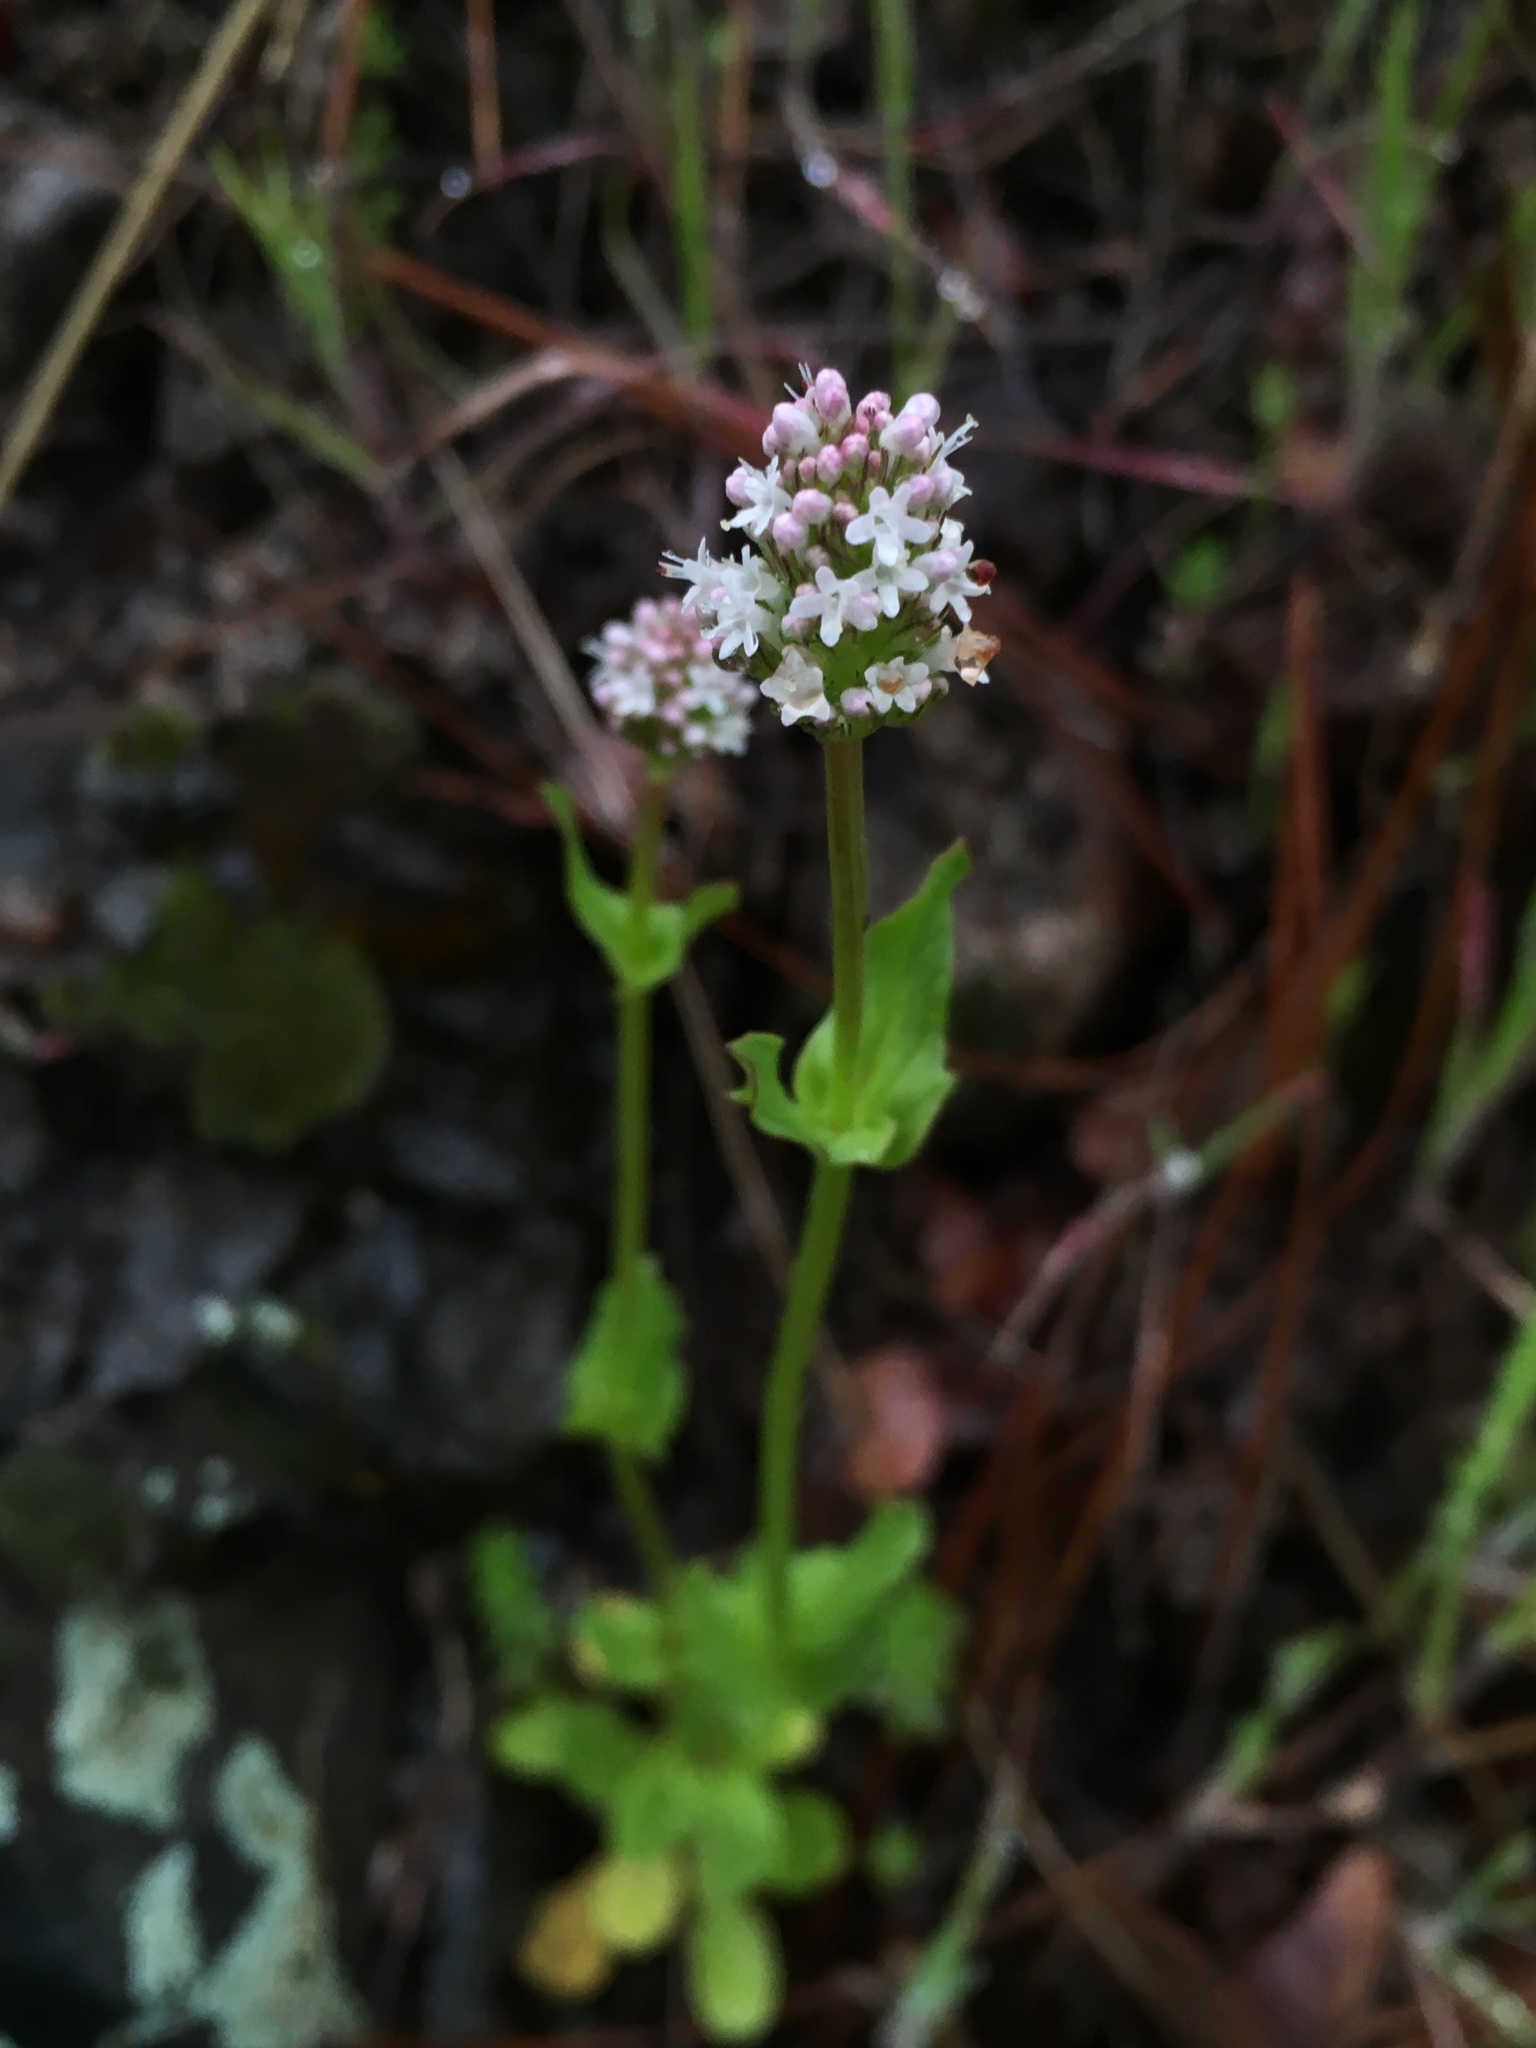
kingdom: Plantae
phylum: Tracheophyta
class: Magnoliopsida
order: Dipsacales
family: Caprifoliaceae
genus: Plectritis
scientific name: Plectritis macroptera
